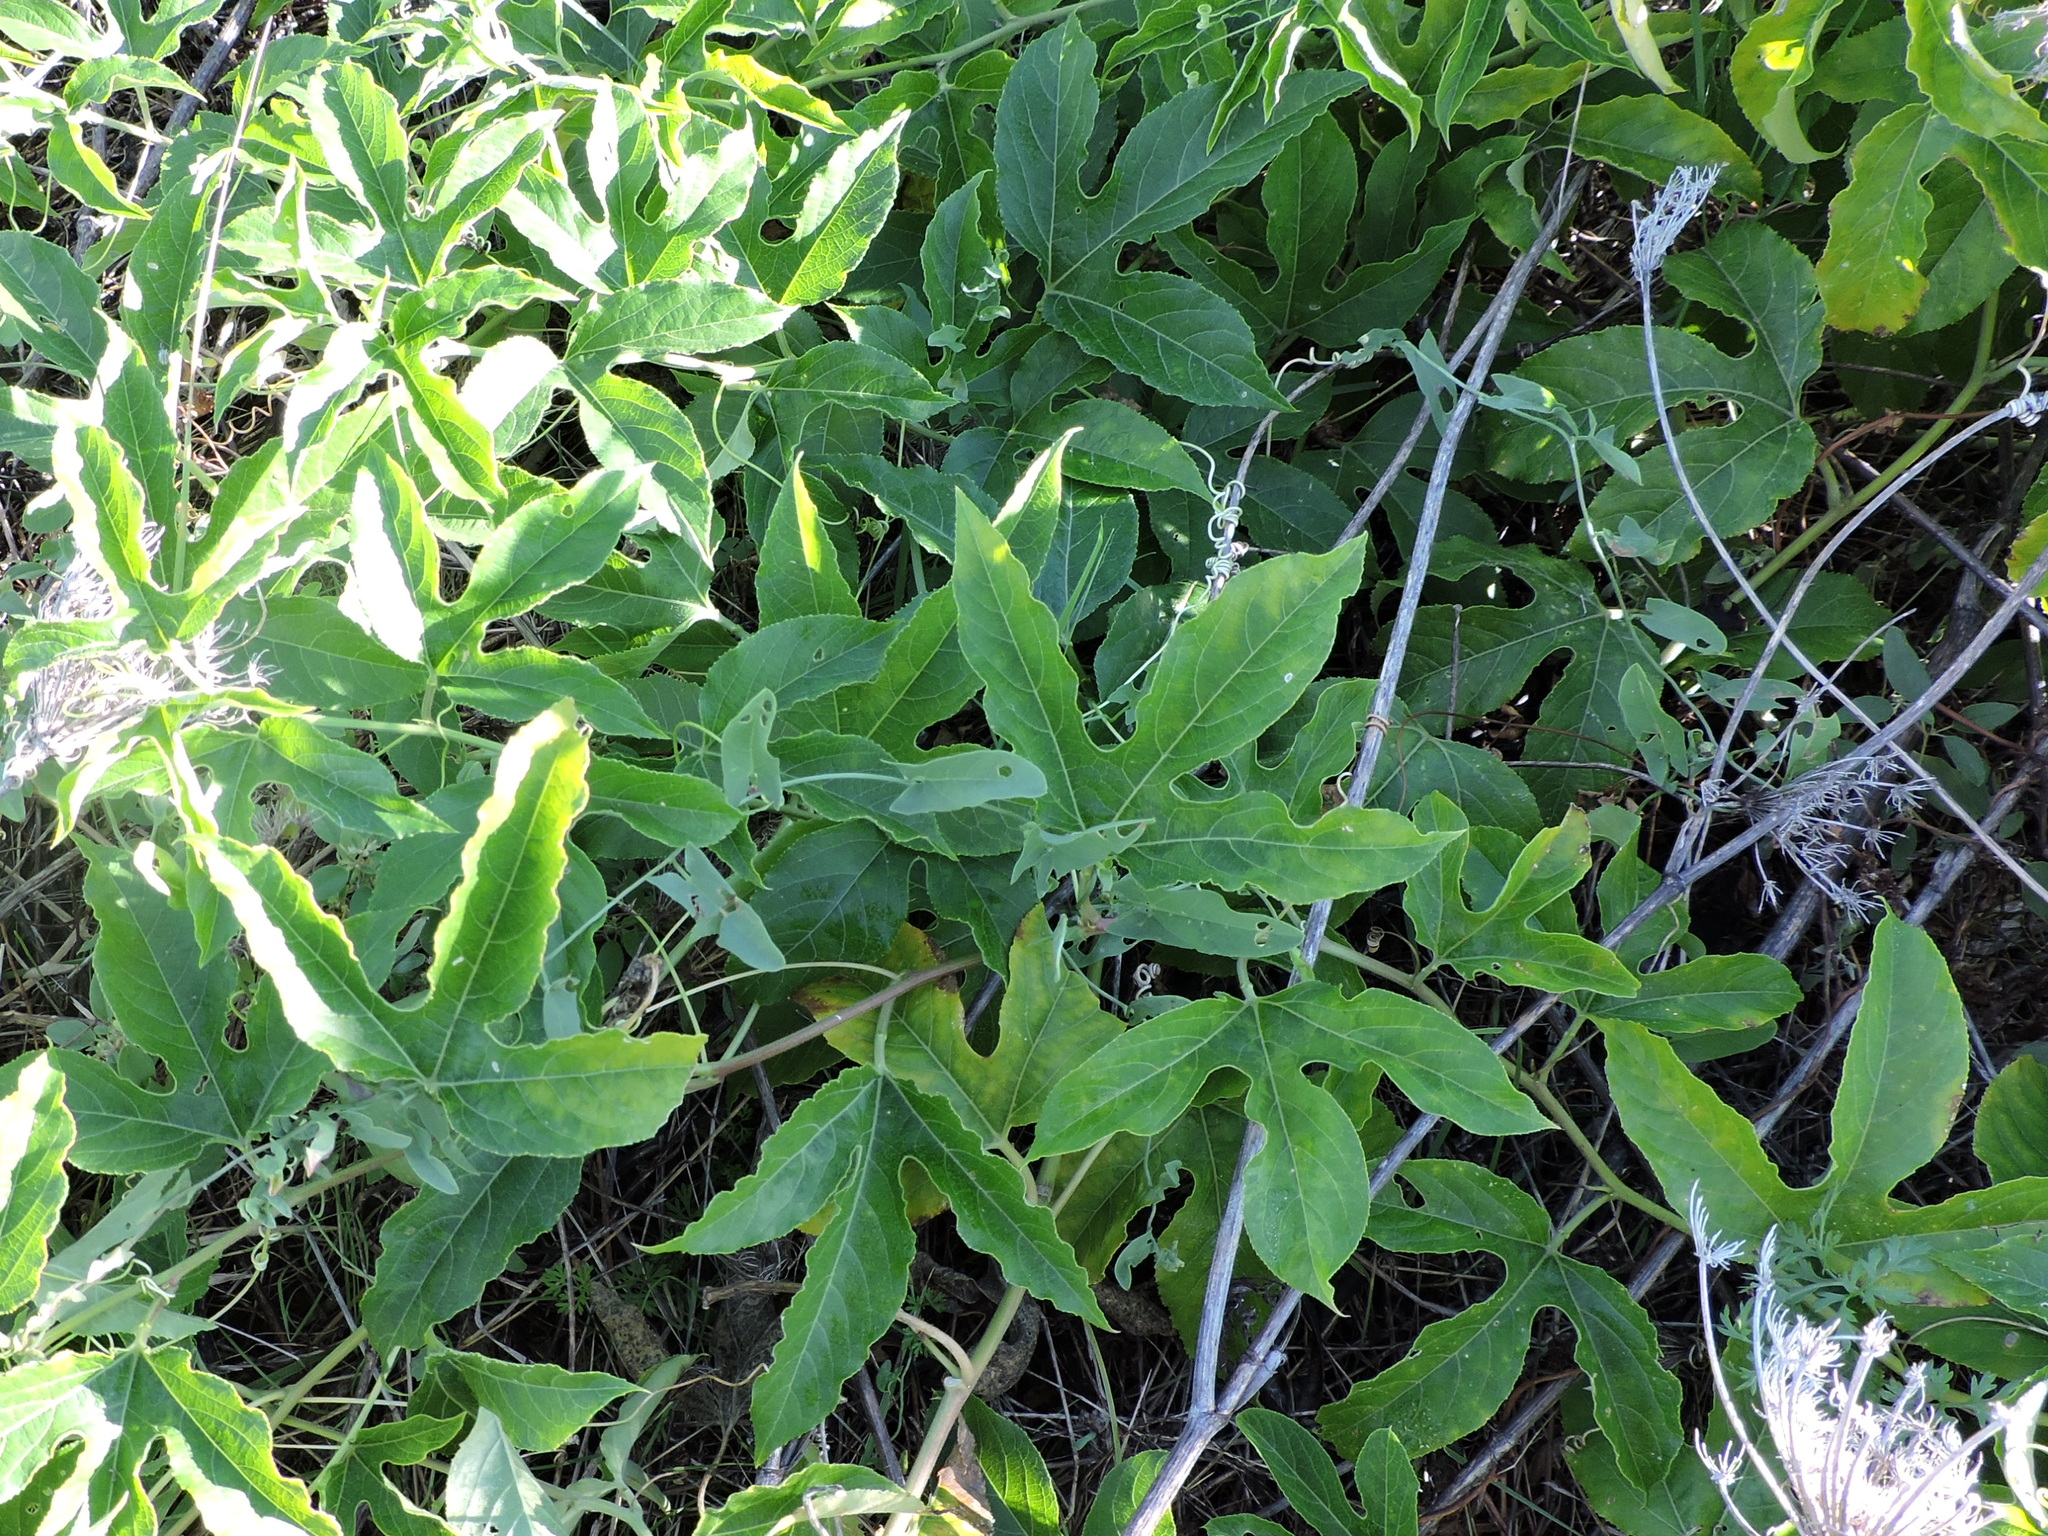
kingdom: Plantae
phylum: Tracheophyta
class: Magnoliopsida
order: Malpighiales
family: Passifloraceae
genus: Passiflora
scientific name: Passiflora incarnata
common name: Apricot-vine
